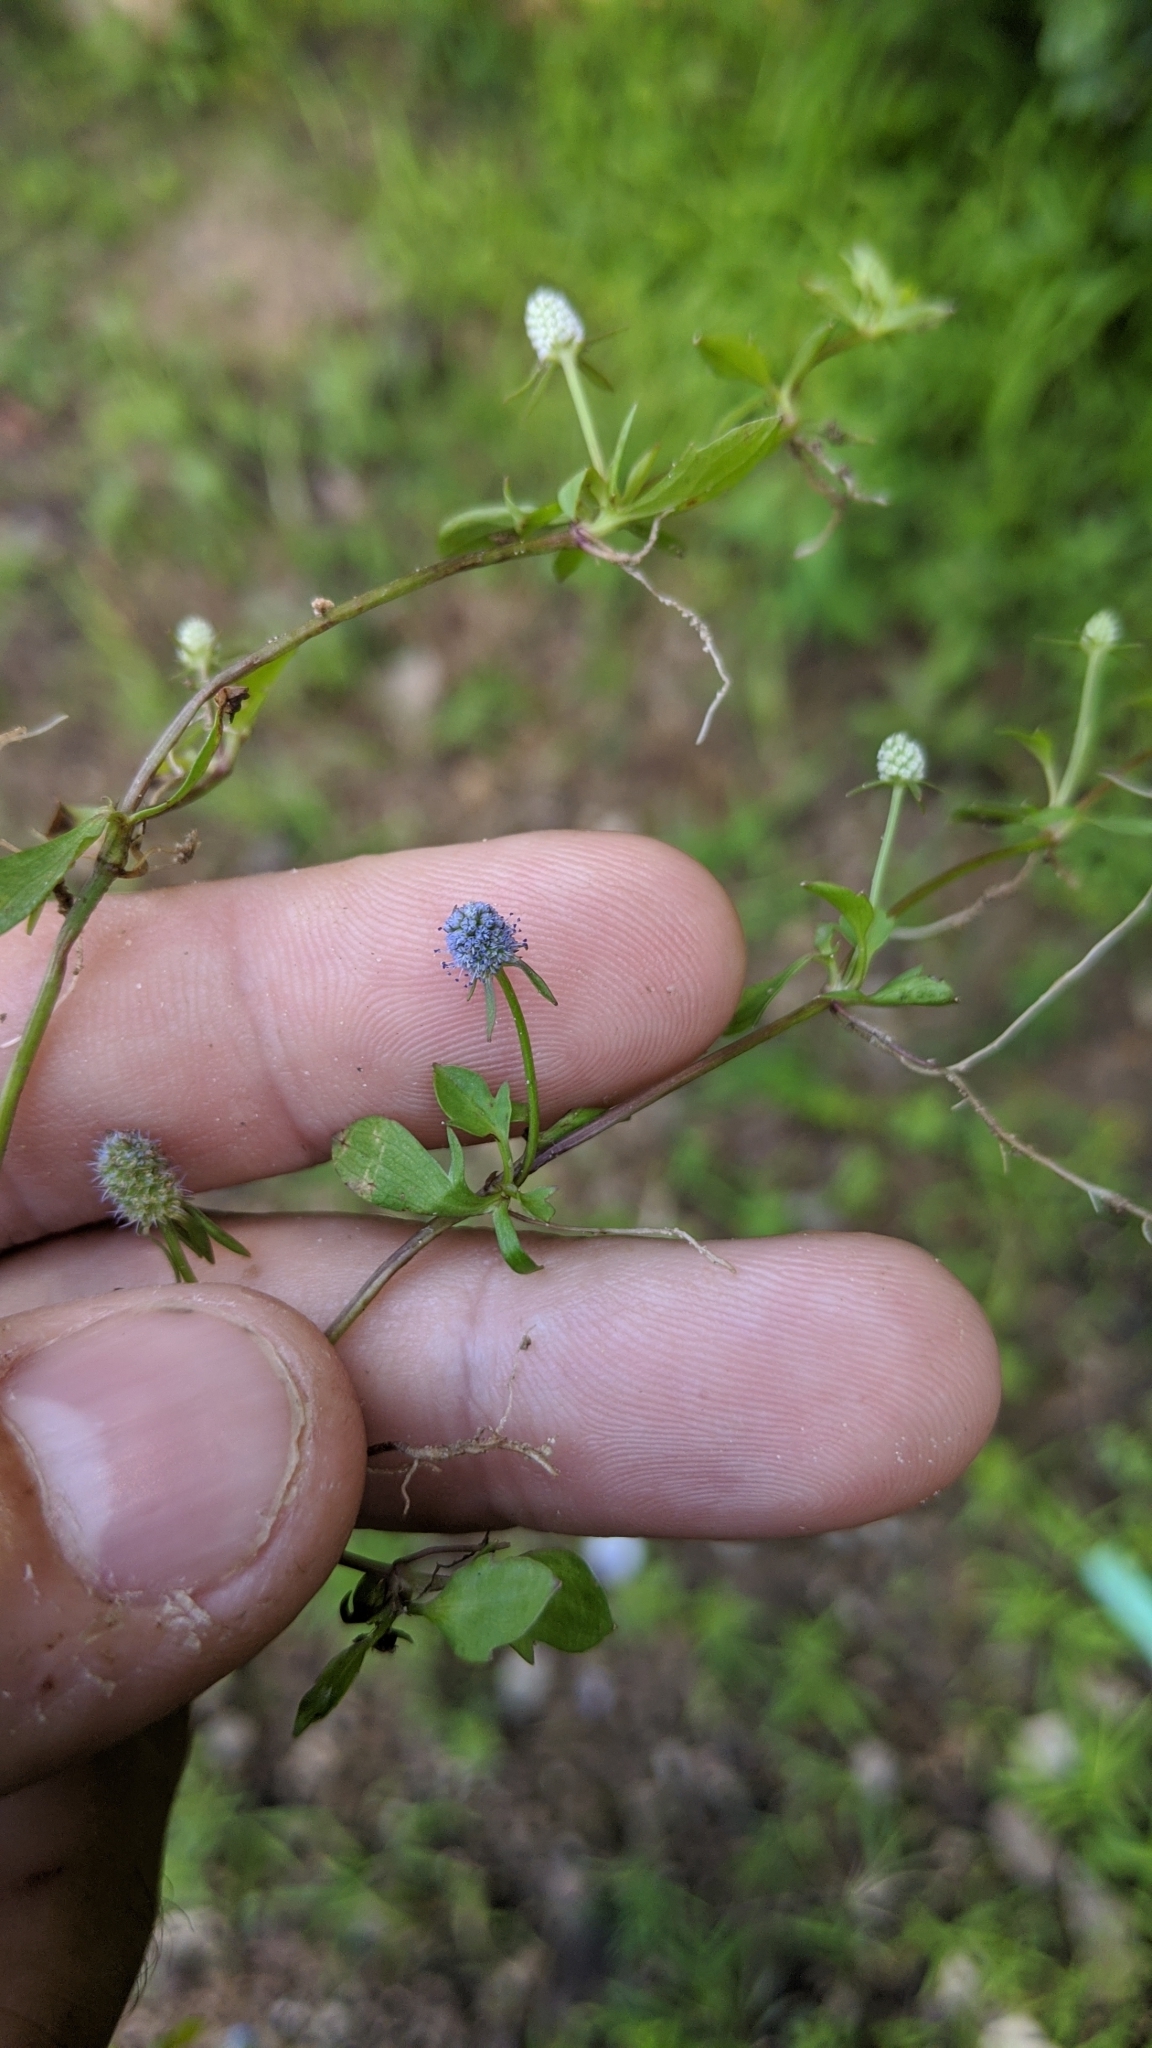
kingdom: Plantae
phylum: Tracheophyta
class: Magnoliopsida
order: Apiales
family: Apiaceae
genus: Eryngium
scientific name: Eryngium prostratum
